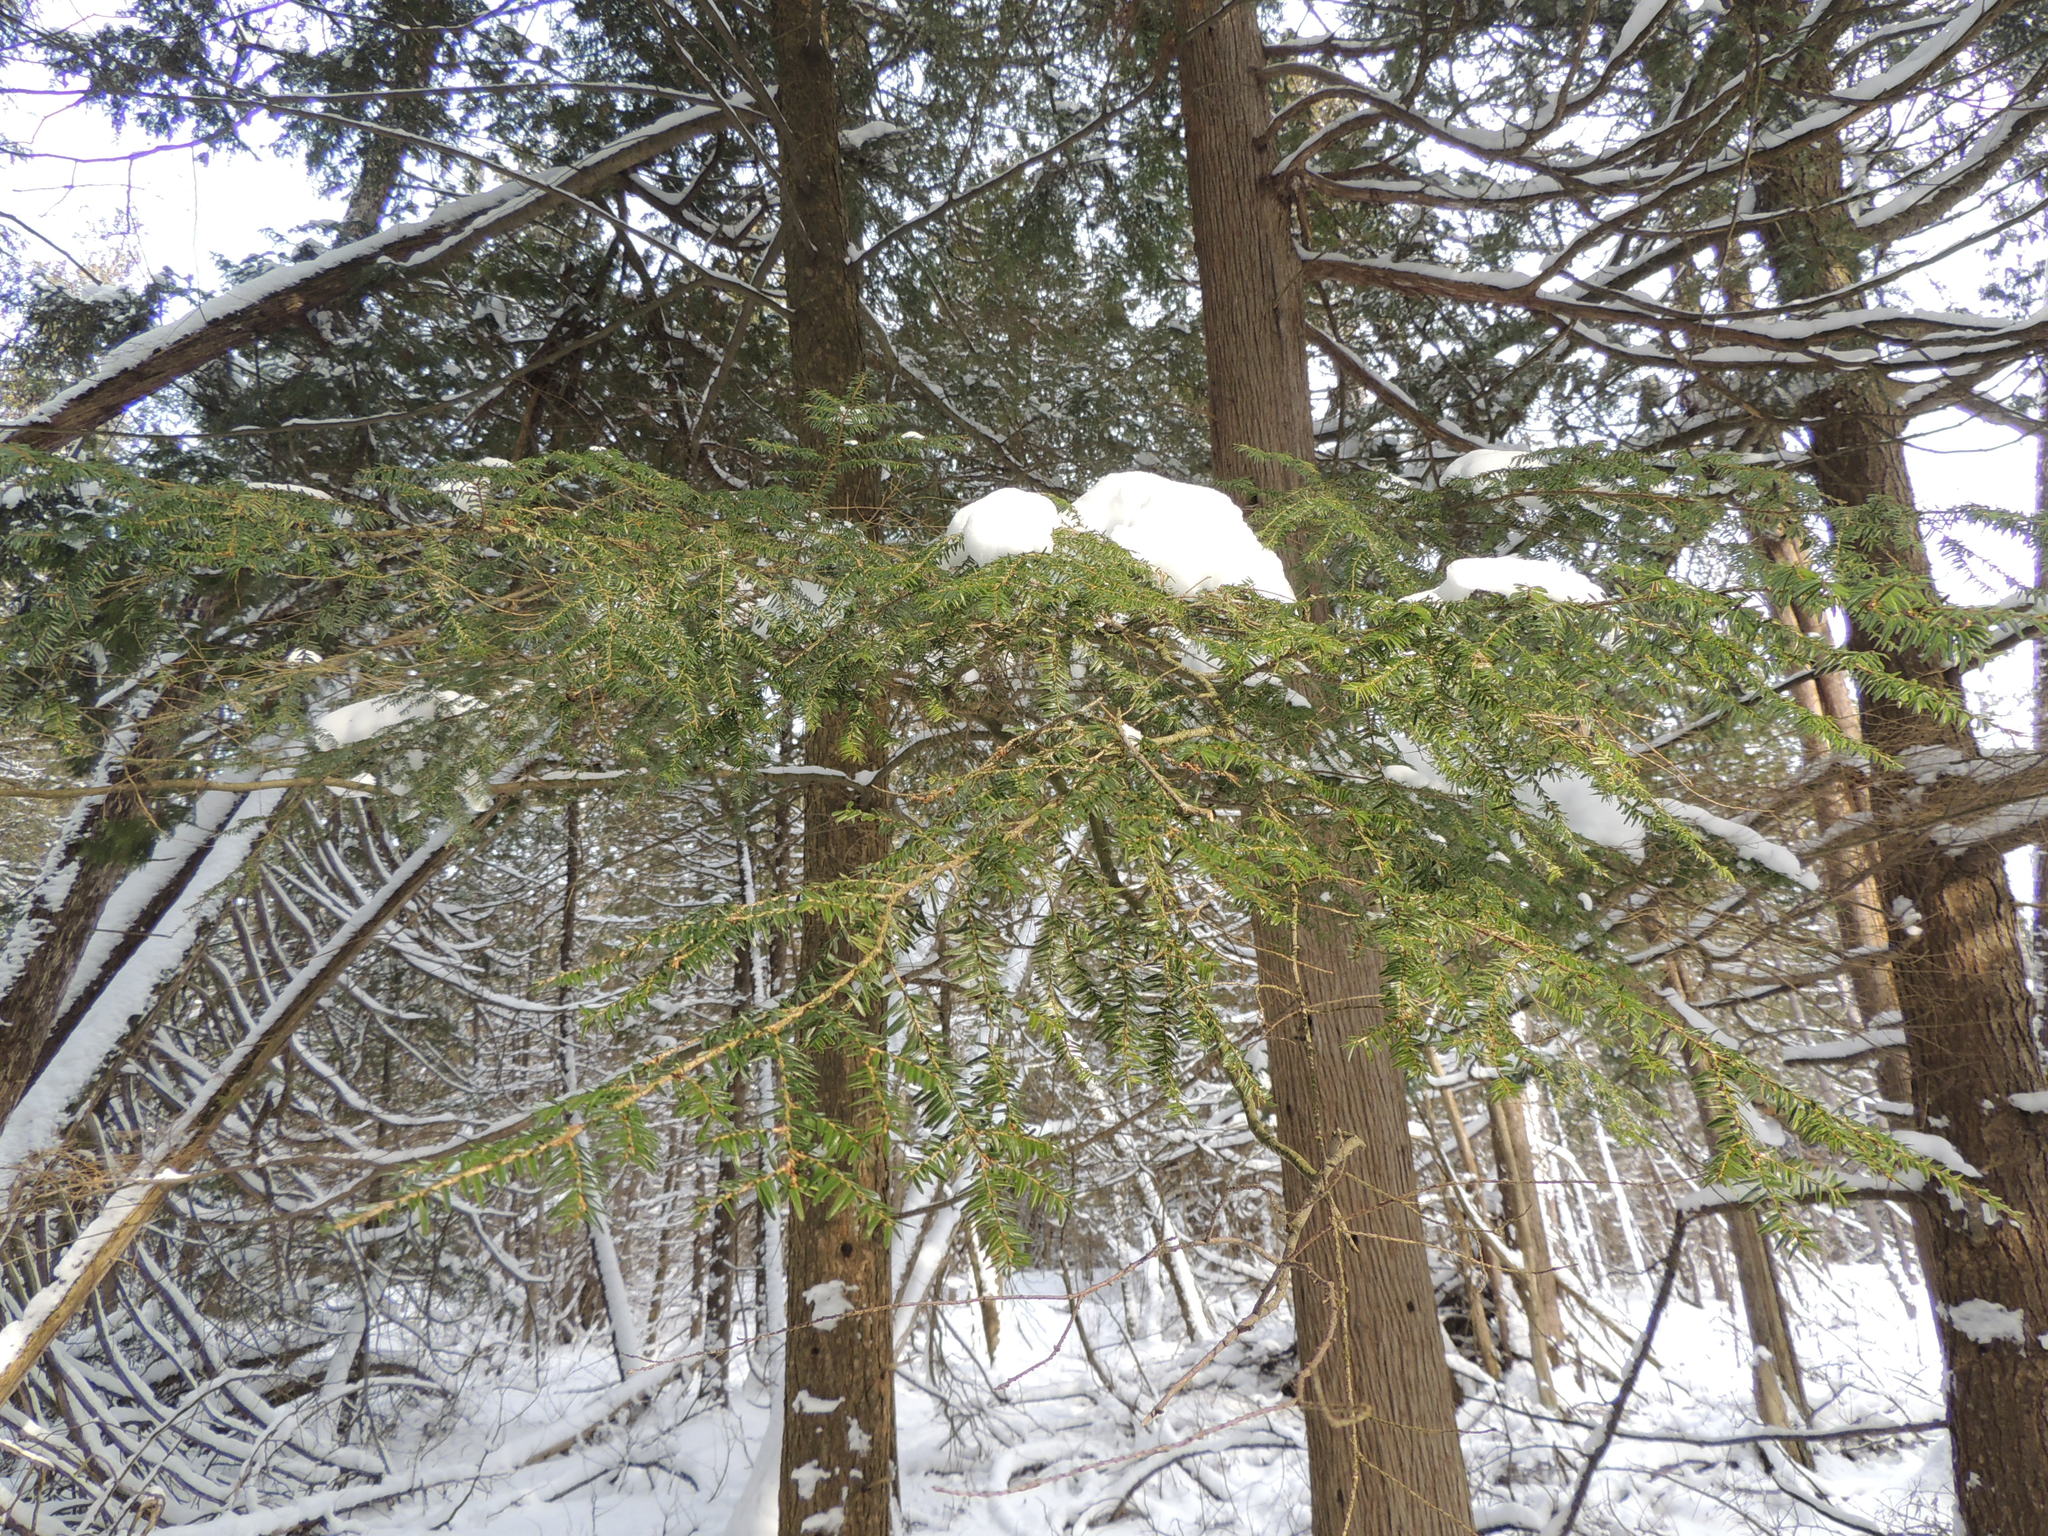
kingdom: Plantae
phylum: Tracheophyta
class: Pinopsida
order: Pinales
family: Pinaceae
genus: Tsuga
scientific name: Tsuga canadensis
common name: Eastern hemlock
